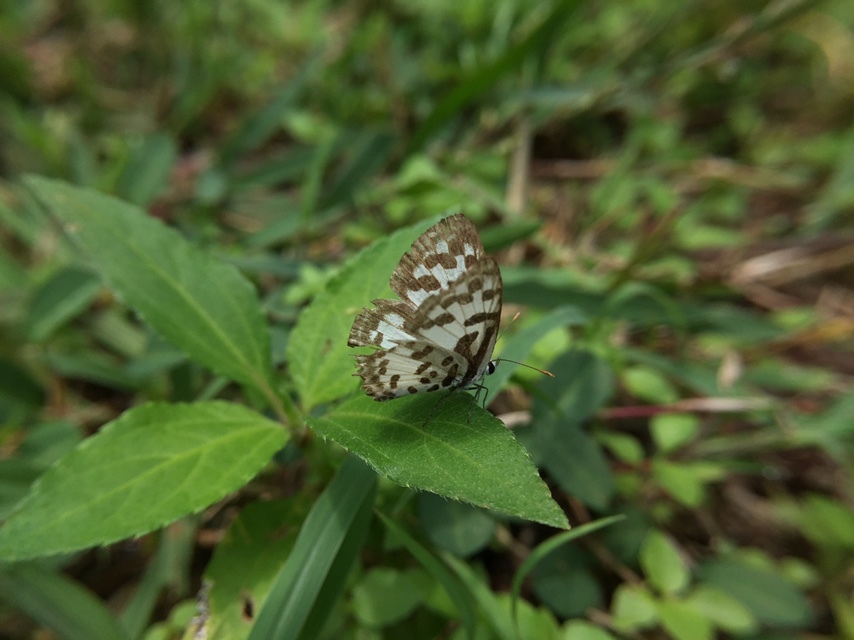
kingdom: Animalia
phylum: Arthropoda
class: Insecta
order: Lepidoptera
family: Lycaenidae
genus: Castalius
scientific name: Castalius rosimon
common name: Common pierrot
